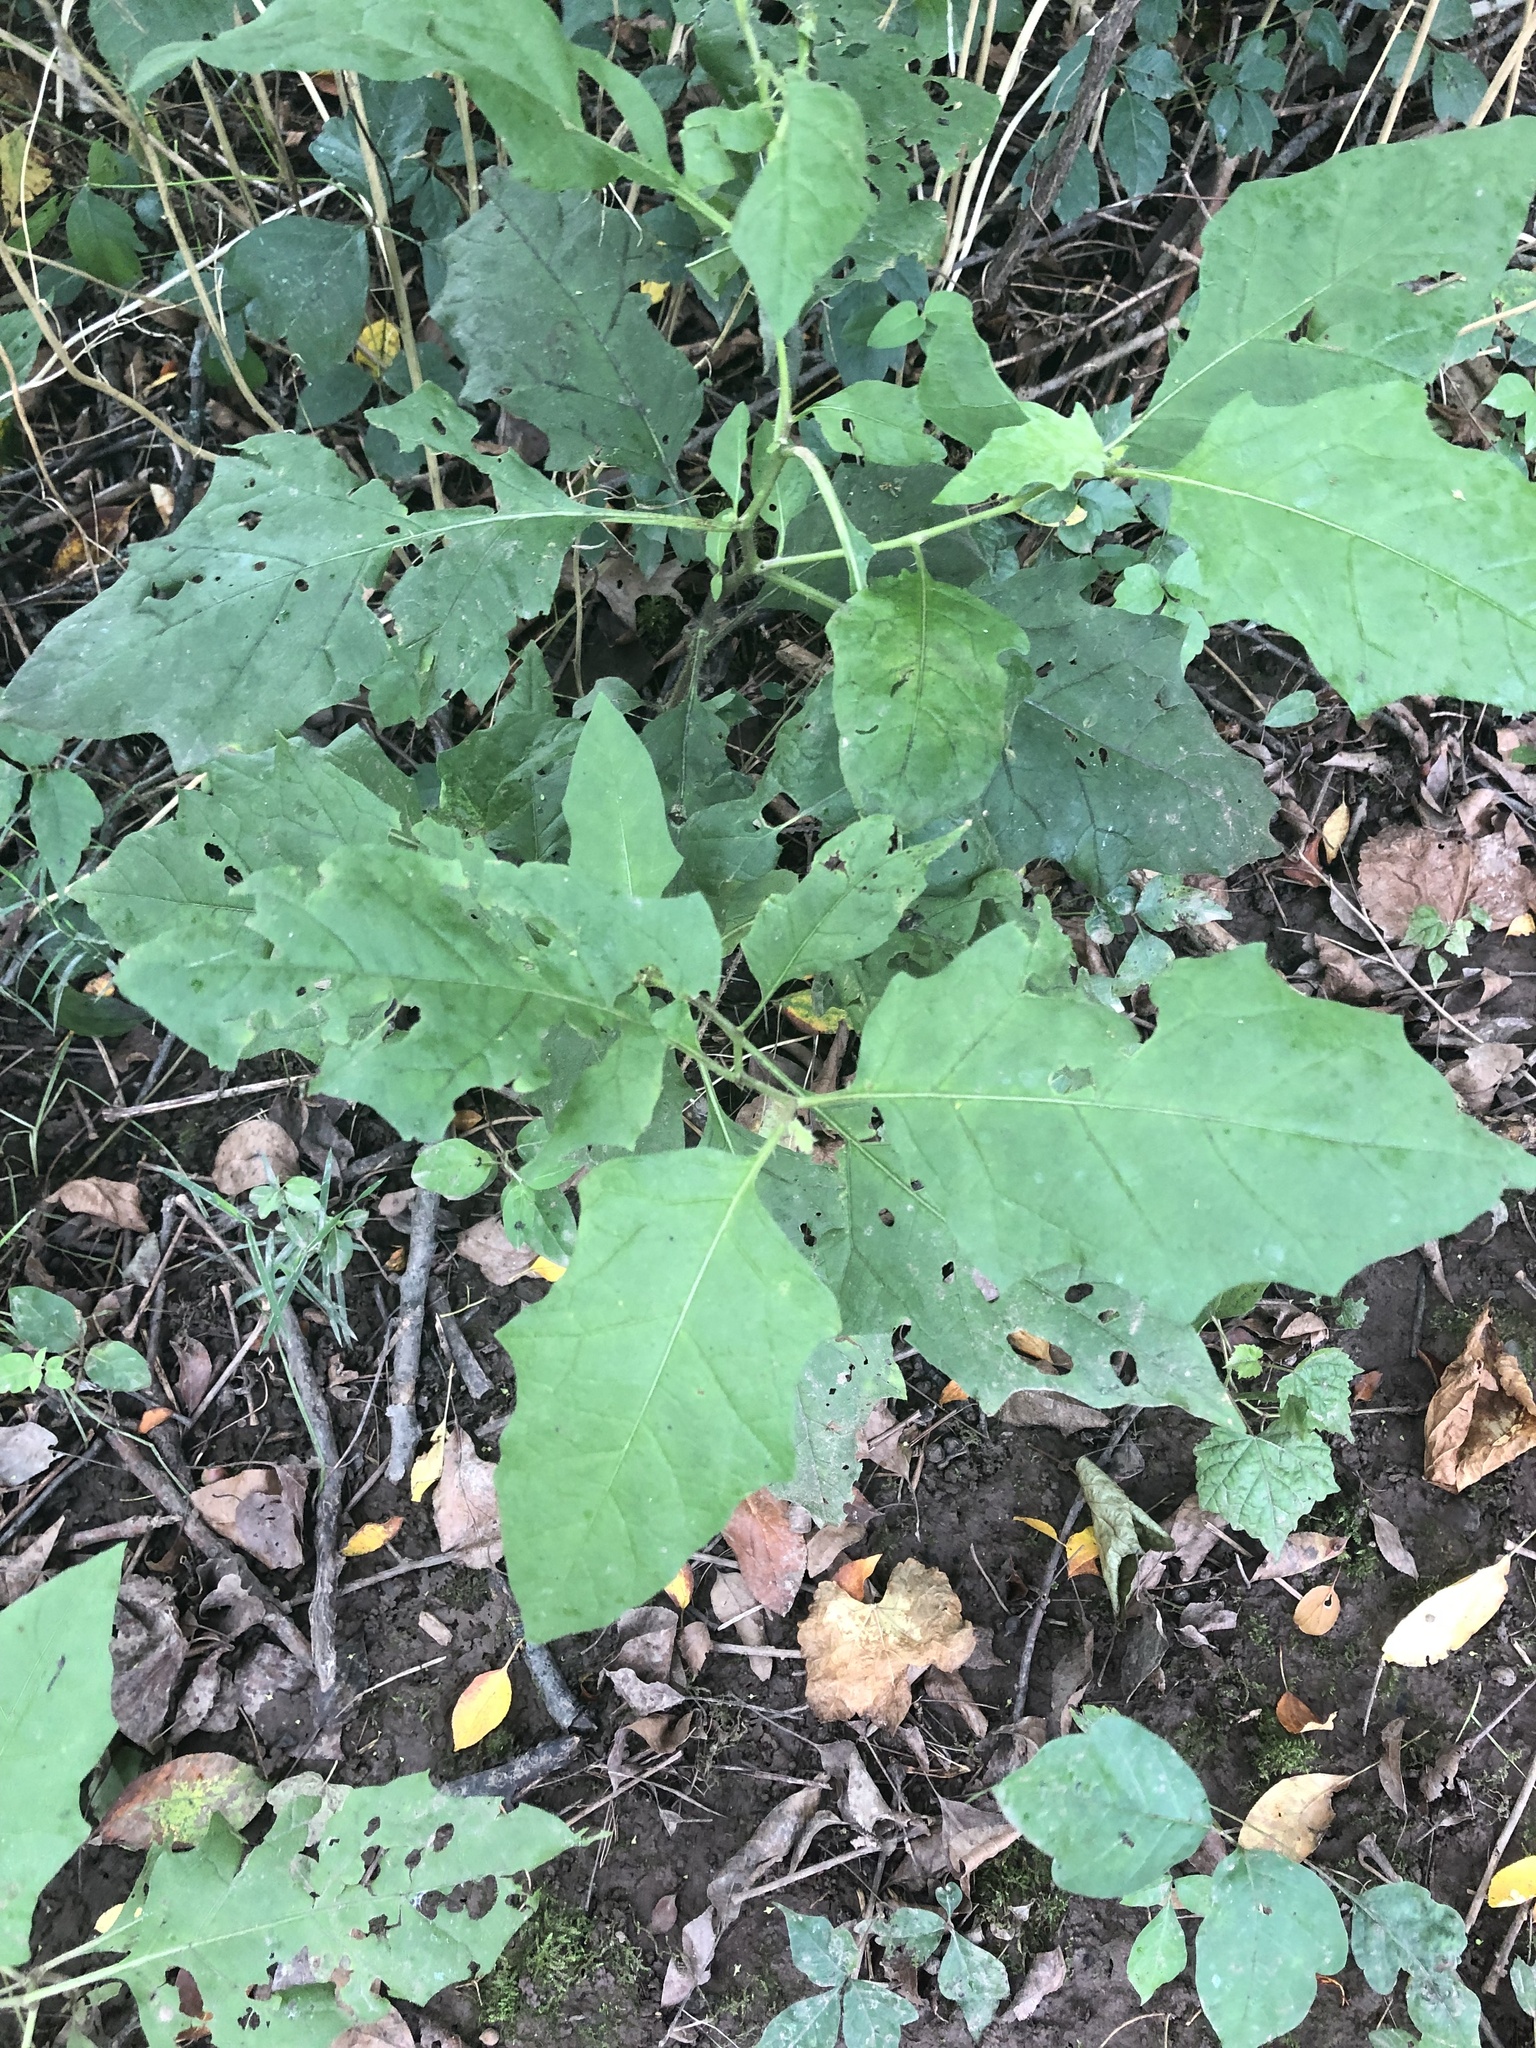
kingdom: Plantae
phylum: Tracheophyta
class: Magnoliopsida
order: Solanales
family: Solanaceae
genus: Solanum
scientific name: Solanum carolinense
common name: Horse-nettle
